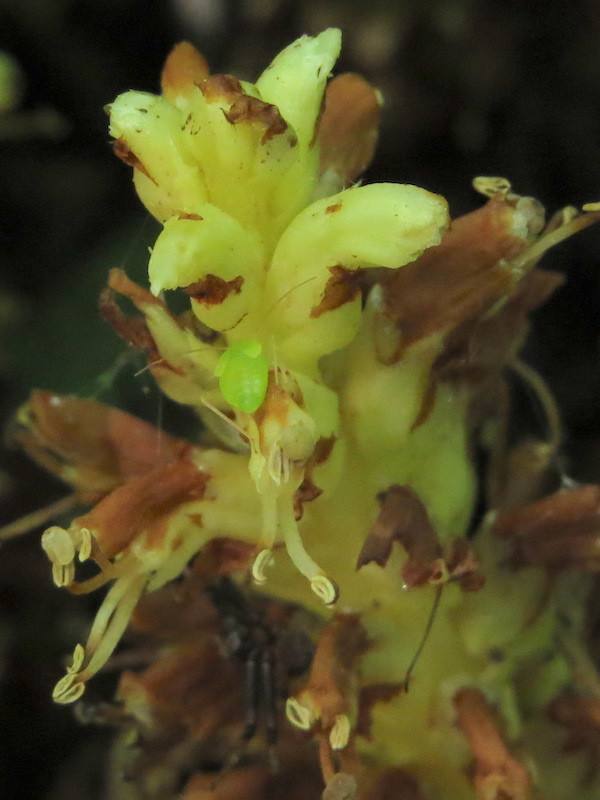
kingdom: Plantae
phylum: Tracheophyta
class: Magnoliopsida
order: Lamiales
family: Orobanchaceae
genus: Conopholis
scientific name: Conopholis americana
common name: American cancer-root
